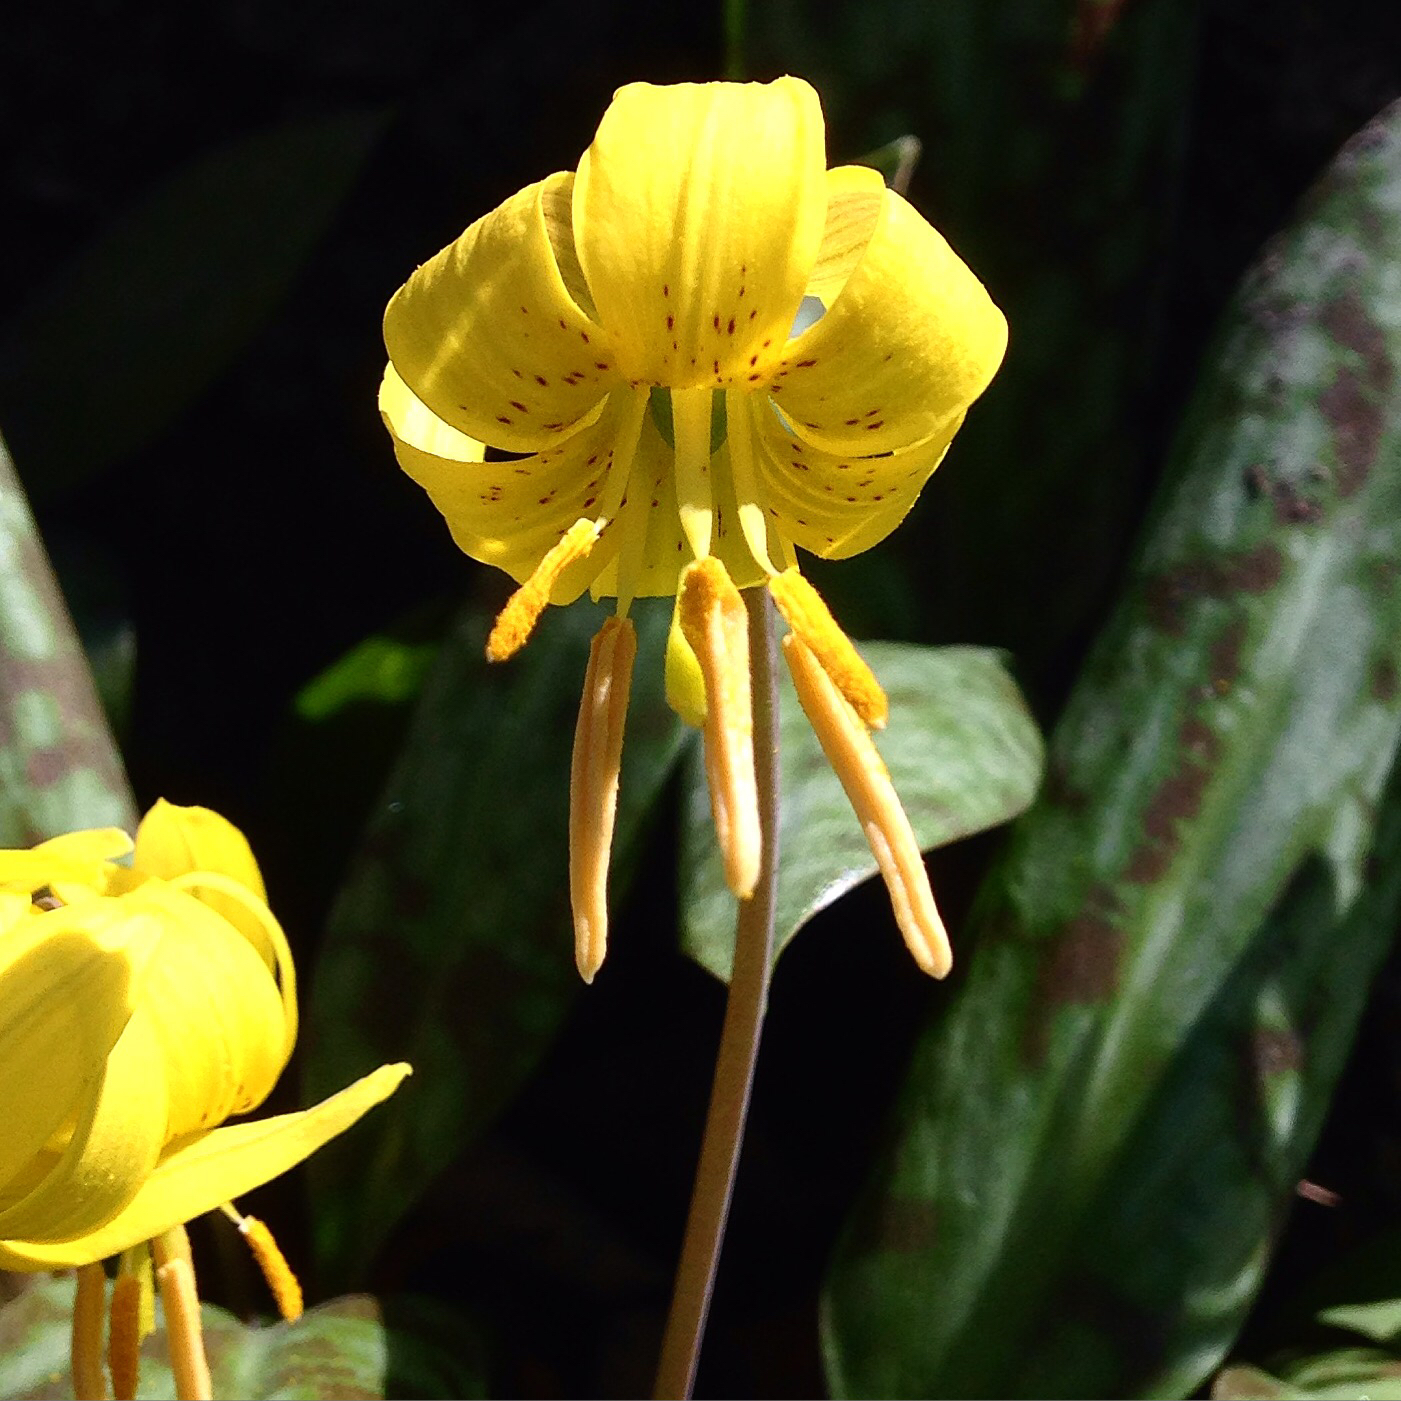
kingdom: Plantae
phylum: Tracheophyta
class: Liliopsida
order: Liliales
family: Liliaceae
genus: Erythronium
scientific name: Erythronium americanum
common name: Yellow adder's-tongue
